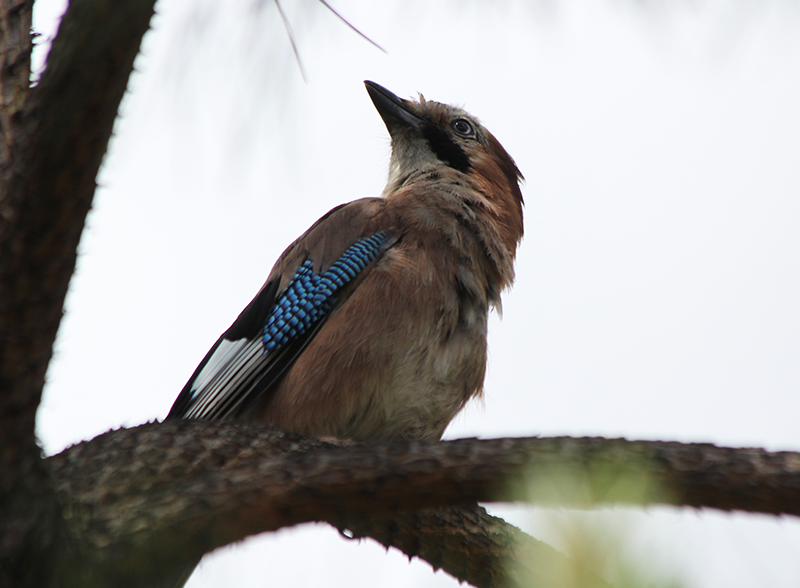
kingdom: Animalia
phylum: Chordata
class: Aves
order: Passeriformes
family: Corvidae
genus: Garrulus
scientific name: Garrulus glandarius
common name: Eurasian jay
